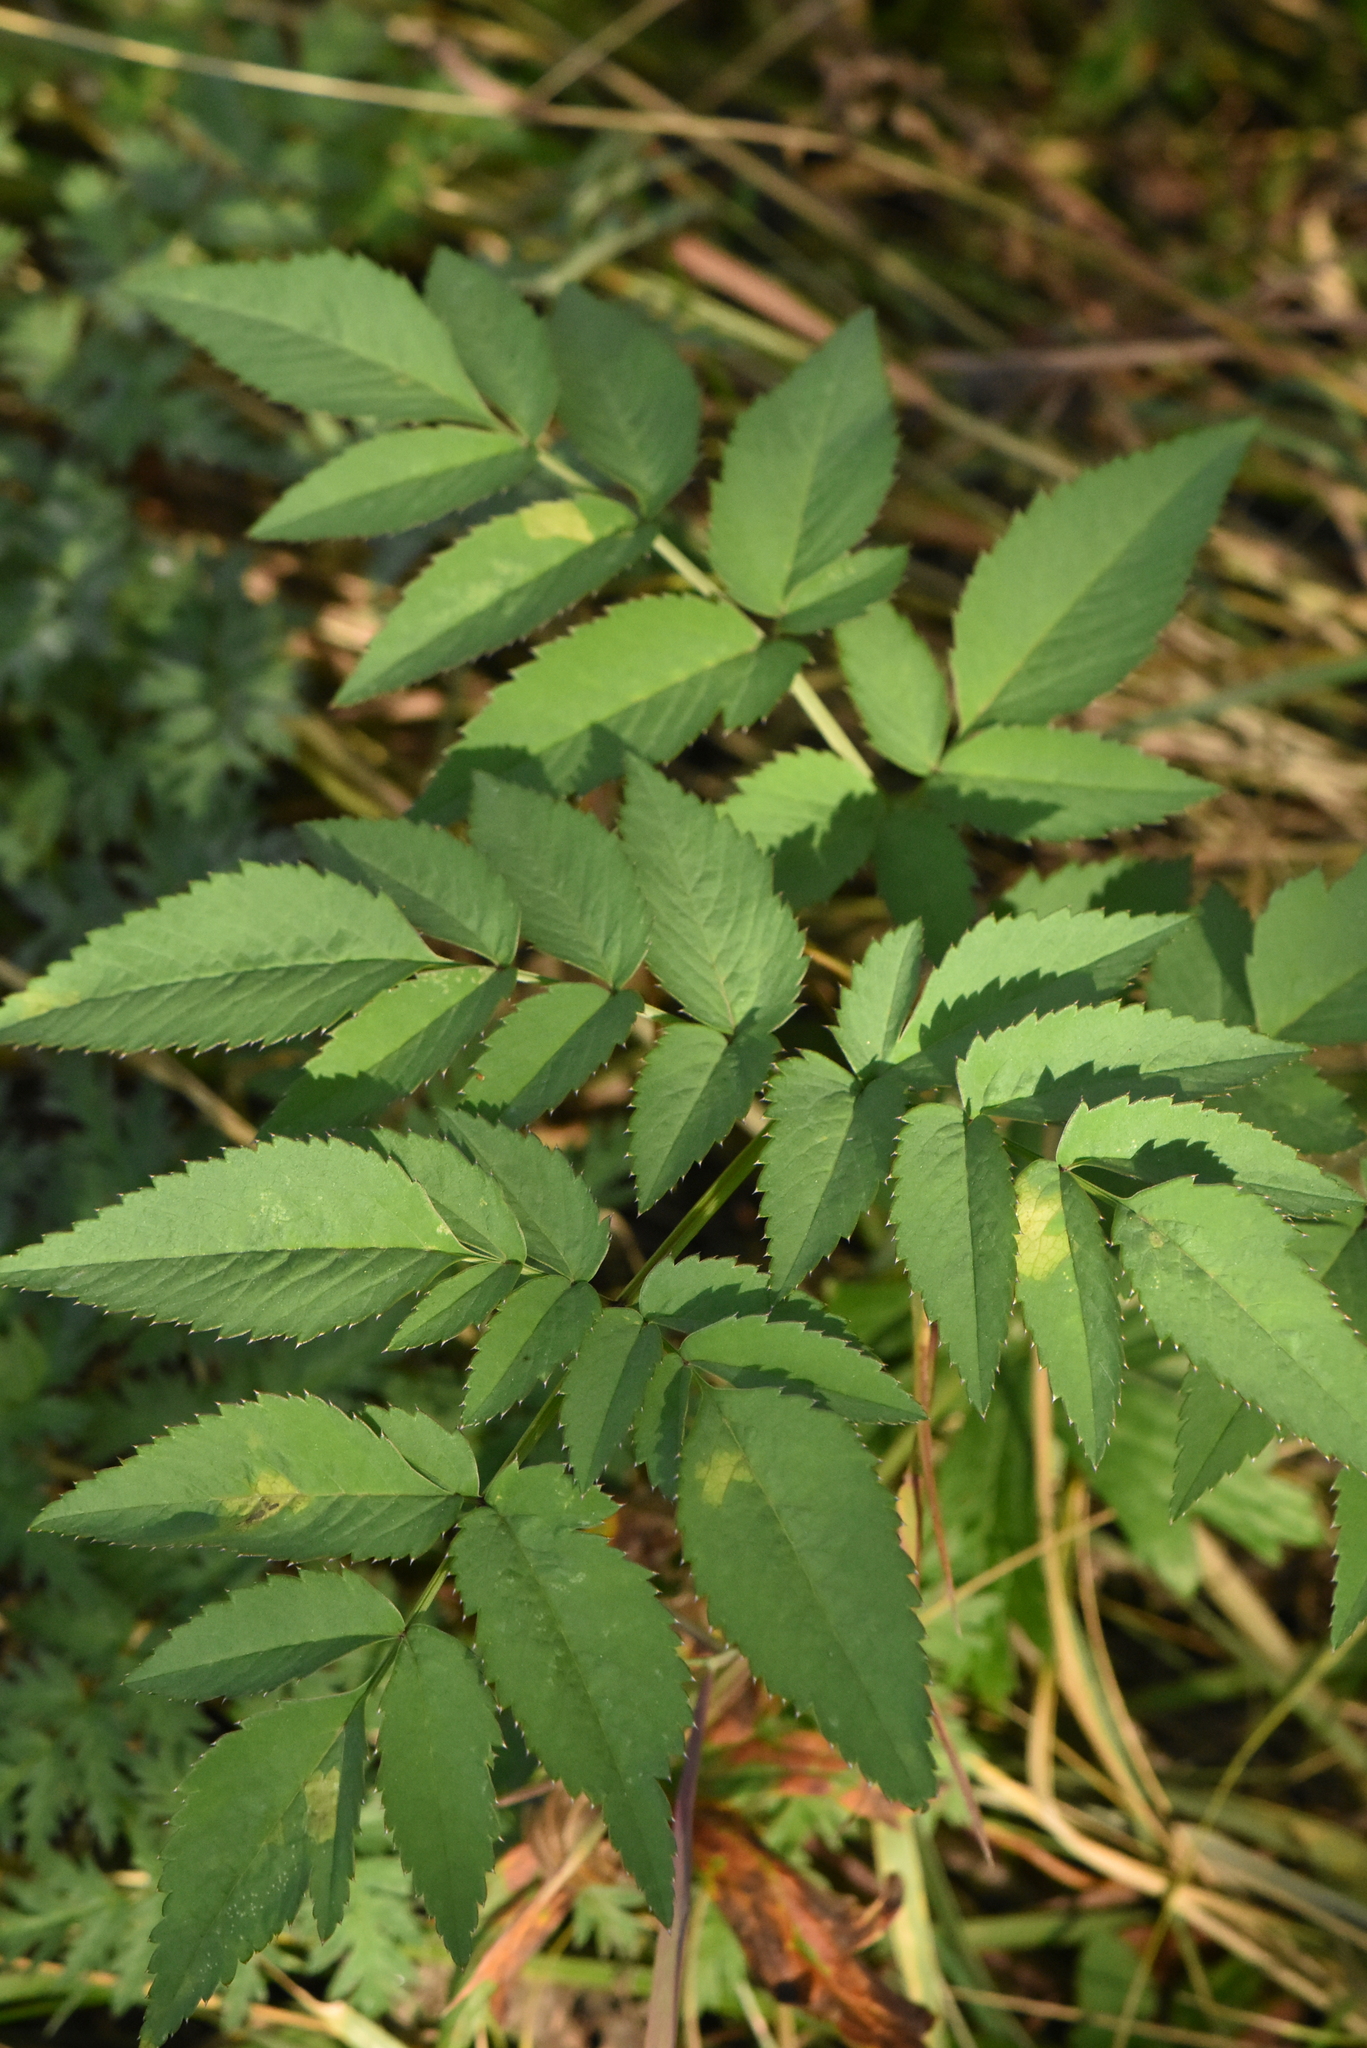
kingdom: Plantae
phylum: Tracheophyta
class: Magnoliopsida
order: Apiales
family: Apiaceae
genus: Angelica
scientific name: Angelica sylvestris
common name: Wild angelica
